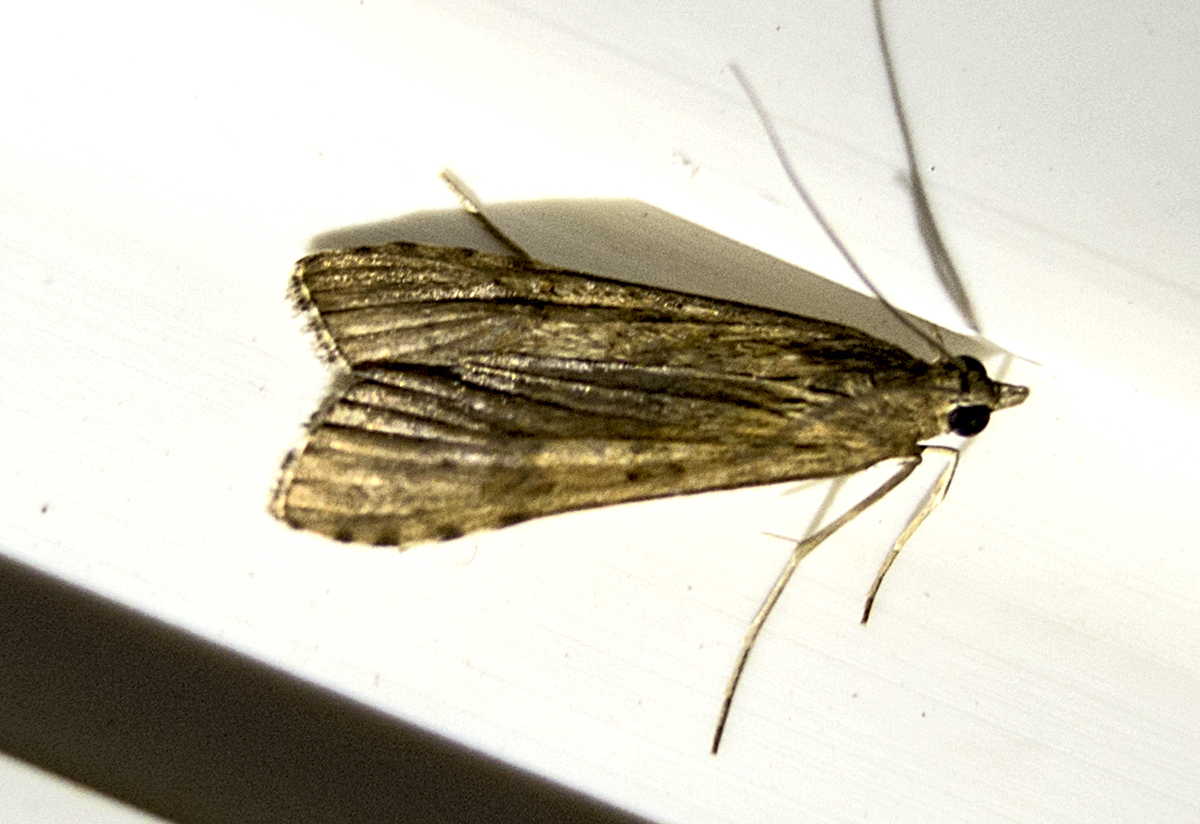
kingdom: Animalia
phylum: Arthropoda
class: Insecta
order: Lepidoptera
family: Crambidae
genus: Nomophila
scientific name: Nomophila noctuella
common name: Rush veneer
